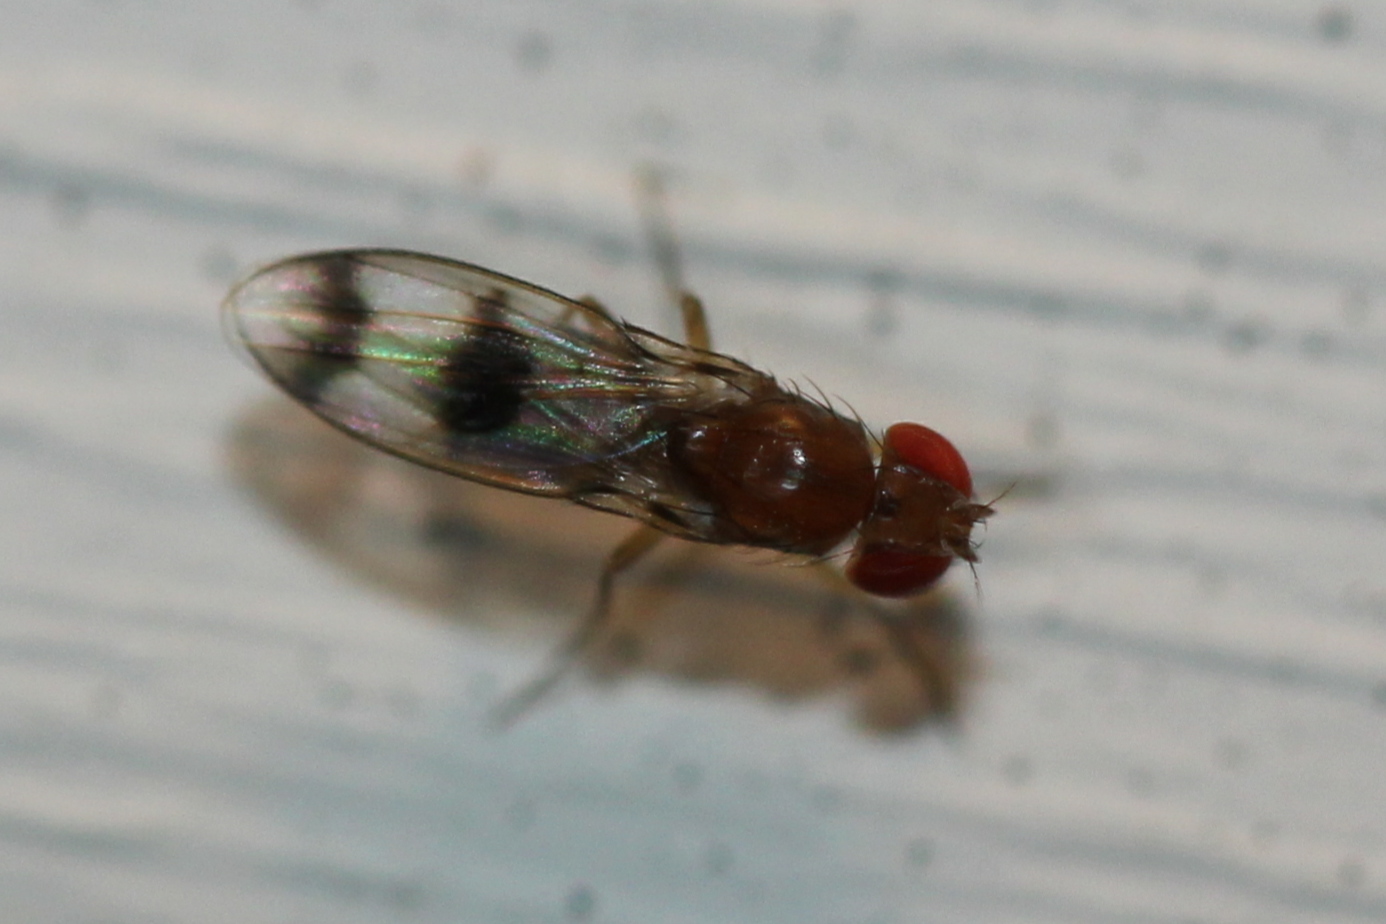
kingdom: Animalia
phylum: Arthropoda
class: Insecta
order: Diptera
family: Drosophilidae
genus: Chymomyza
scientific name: Chymomyza amoena
